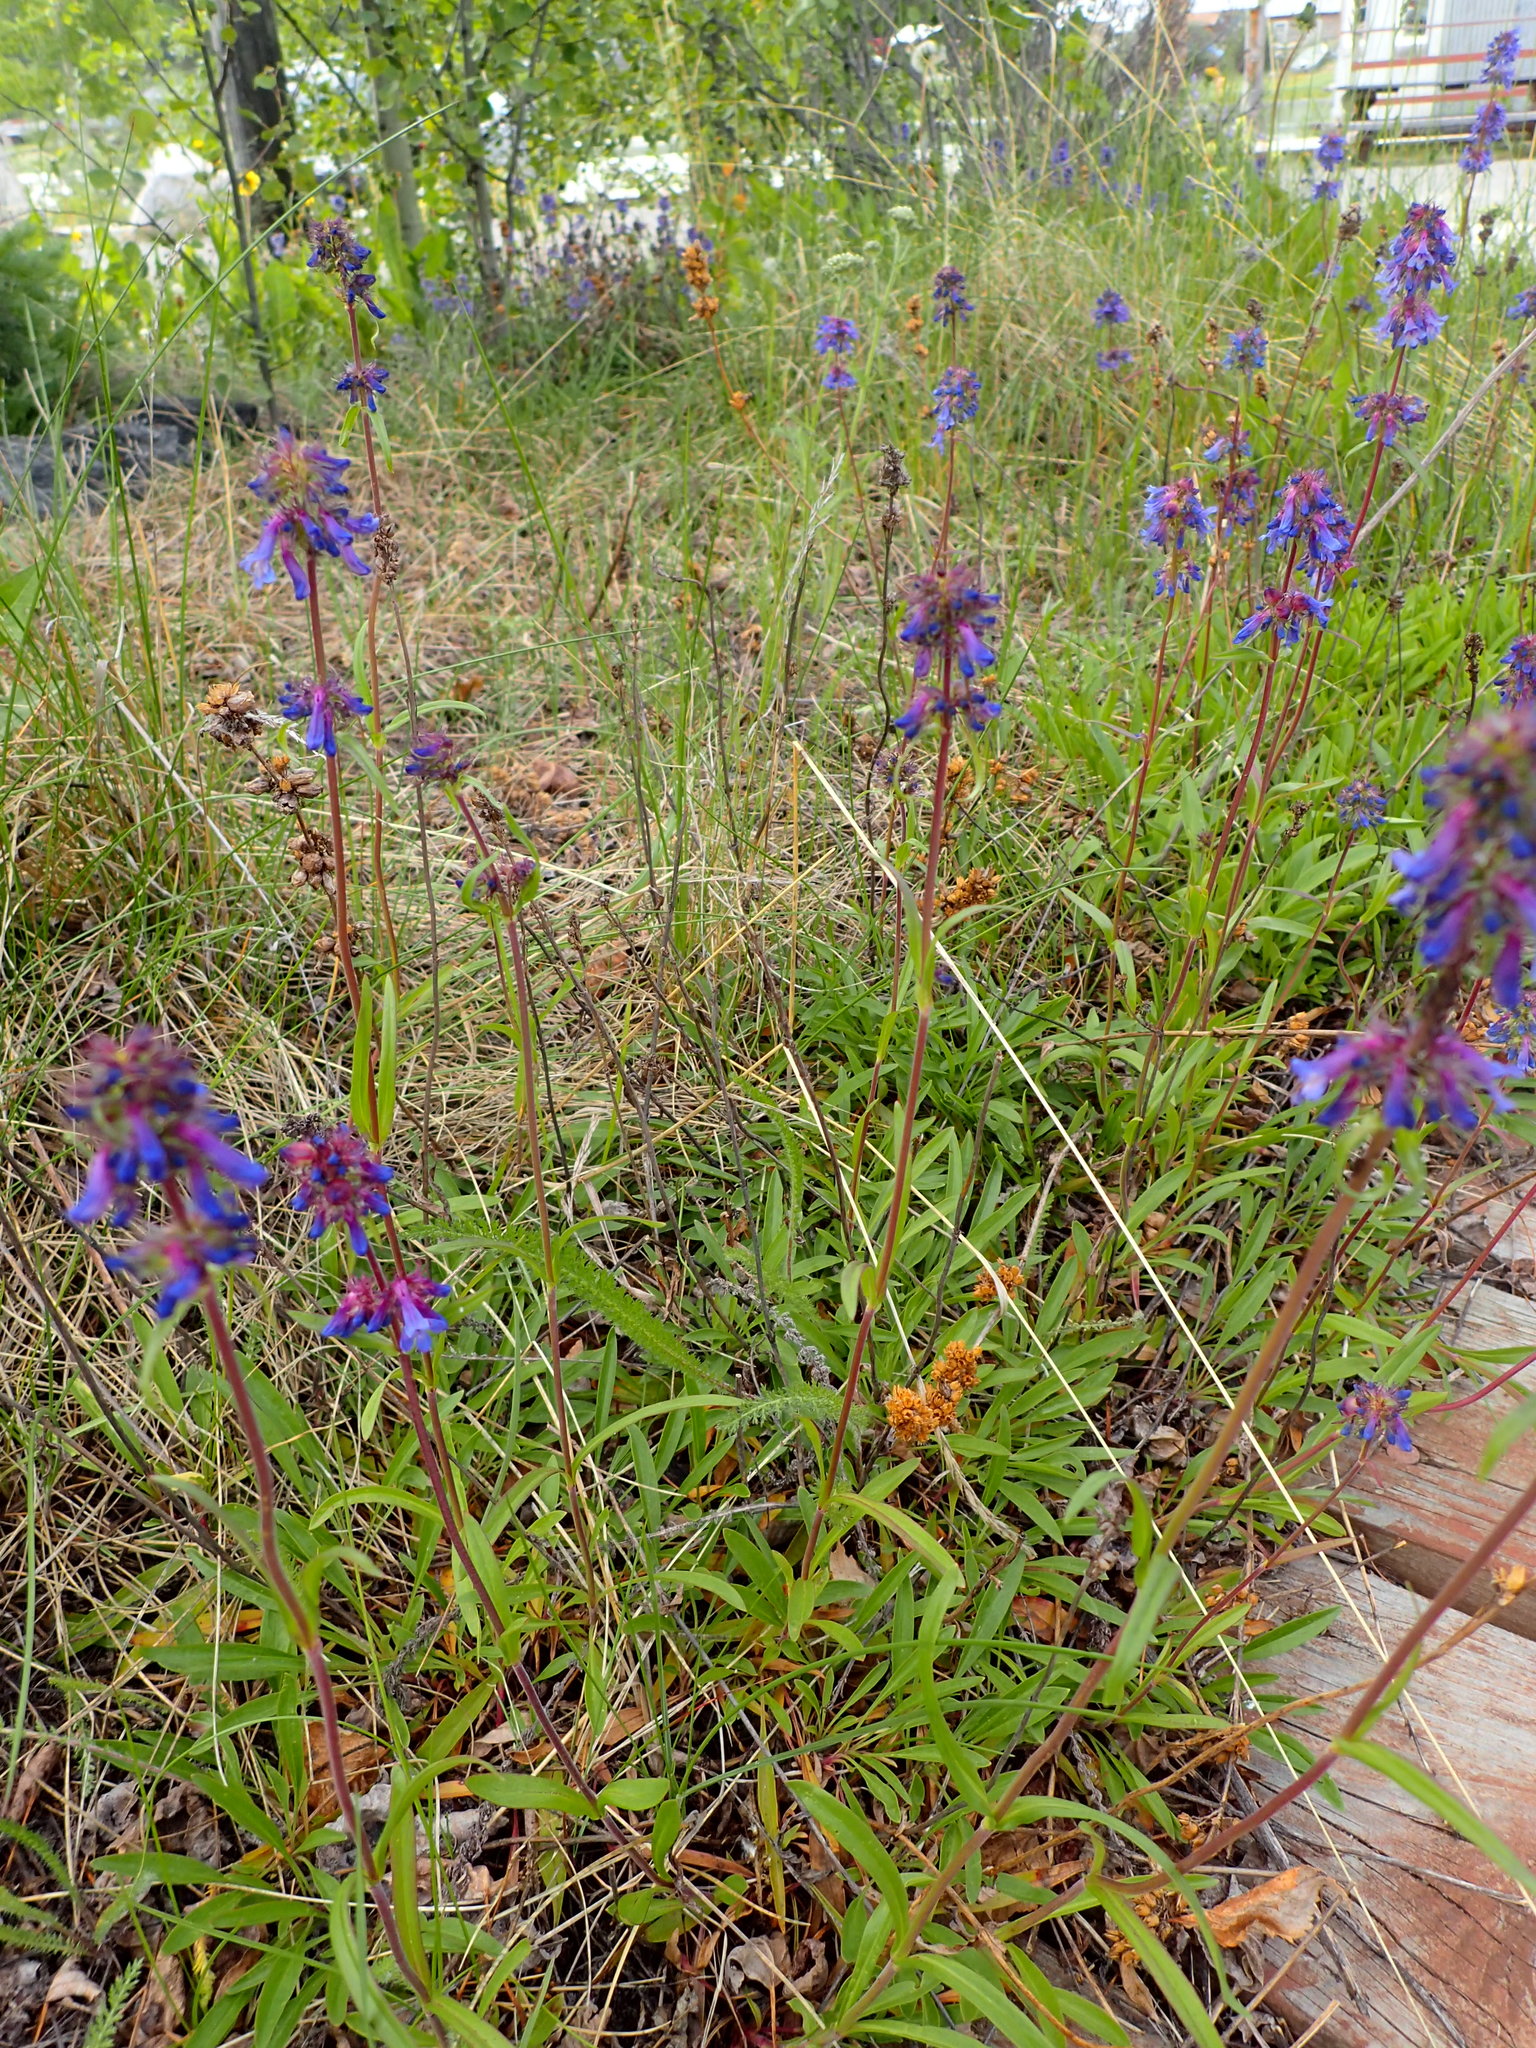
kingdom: Plantae
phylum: Tracheophyta
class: Magnoliopsida
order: Lamiales
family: Plantaginaceae
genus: Penstemon
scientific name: Penstemon procerus
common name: Small-flower penstemon
